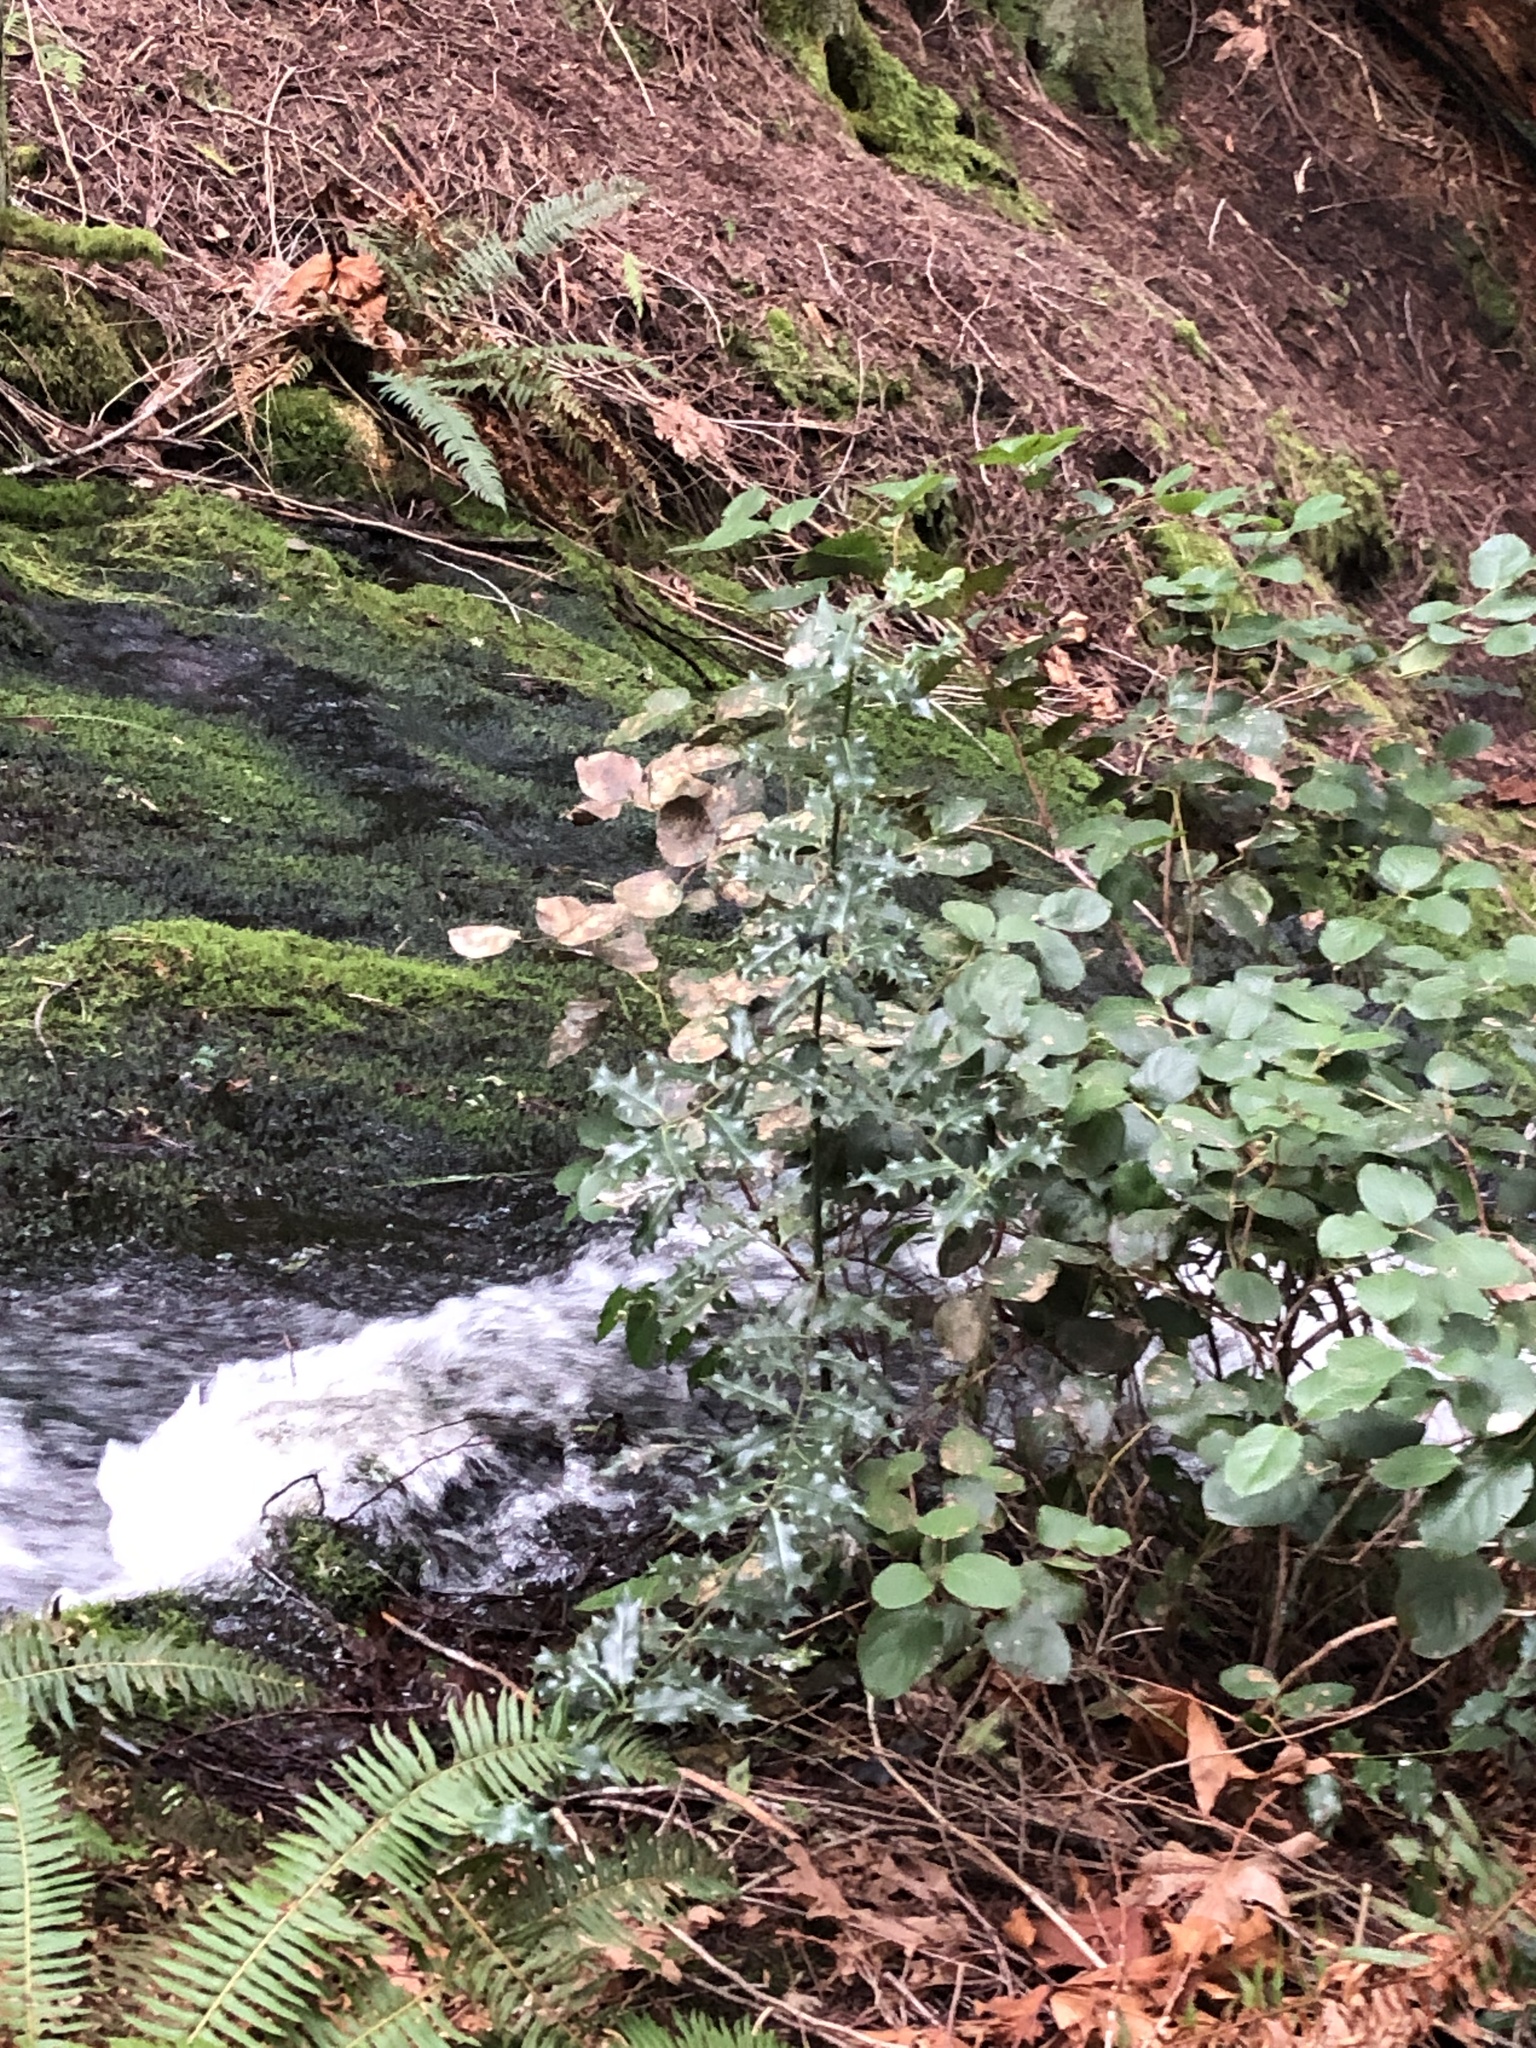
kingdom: Plantae
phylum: Tracheophyta
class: Magnoliopsida
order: Aquifoliales
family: Aquifoliaceae
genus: Ilex
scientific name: Ilex aquifolium
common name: English holly
